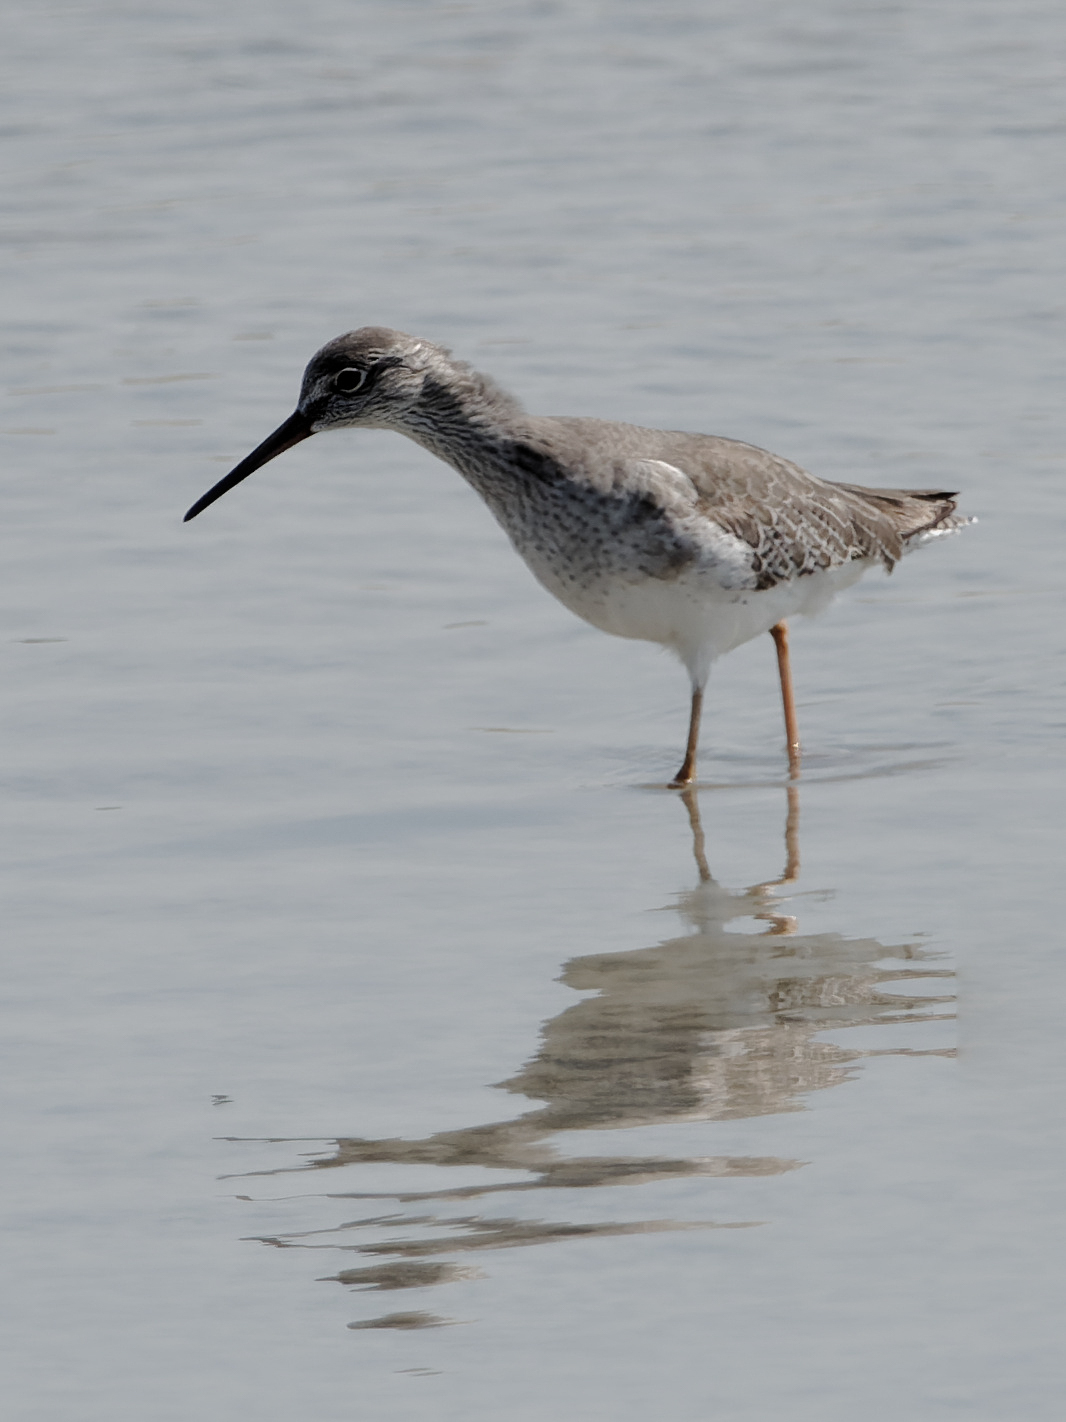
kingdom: Animalia
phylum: Chordata
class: Aves
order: Charadriiformes
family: Scolopacidae
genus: Tringa
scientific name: Tringa totanus
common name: Common redshank
